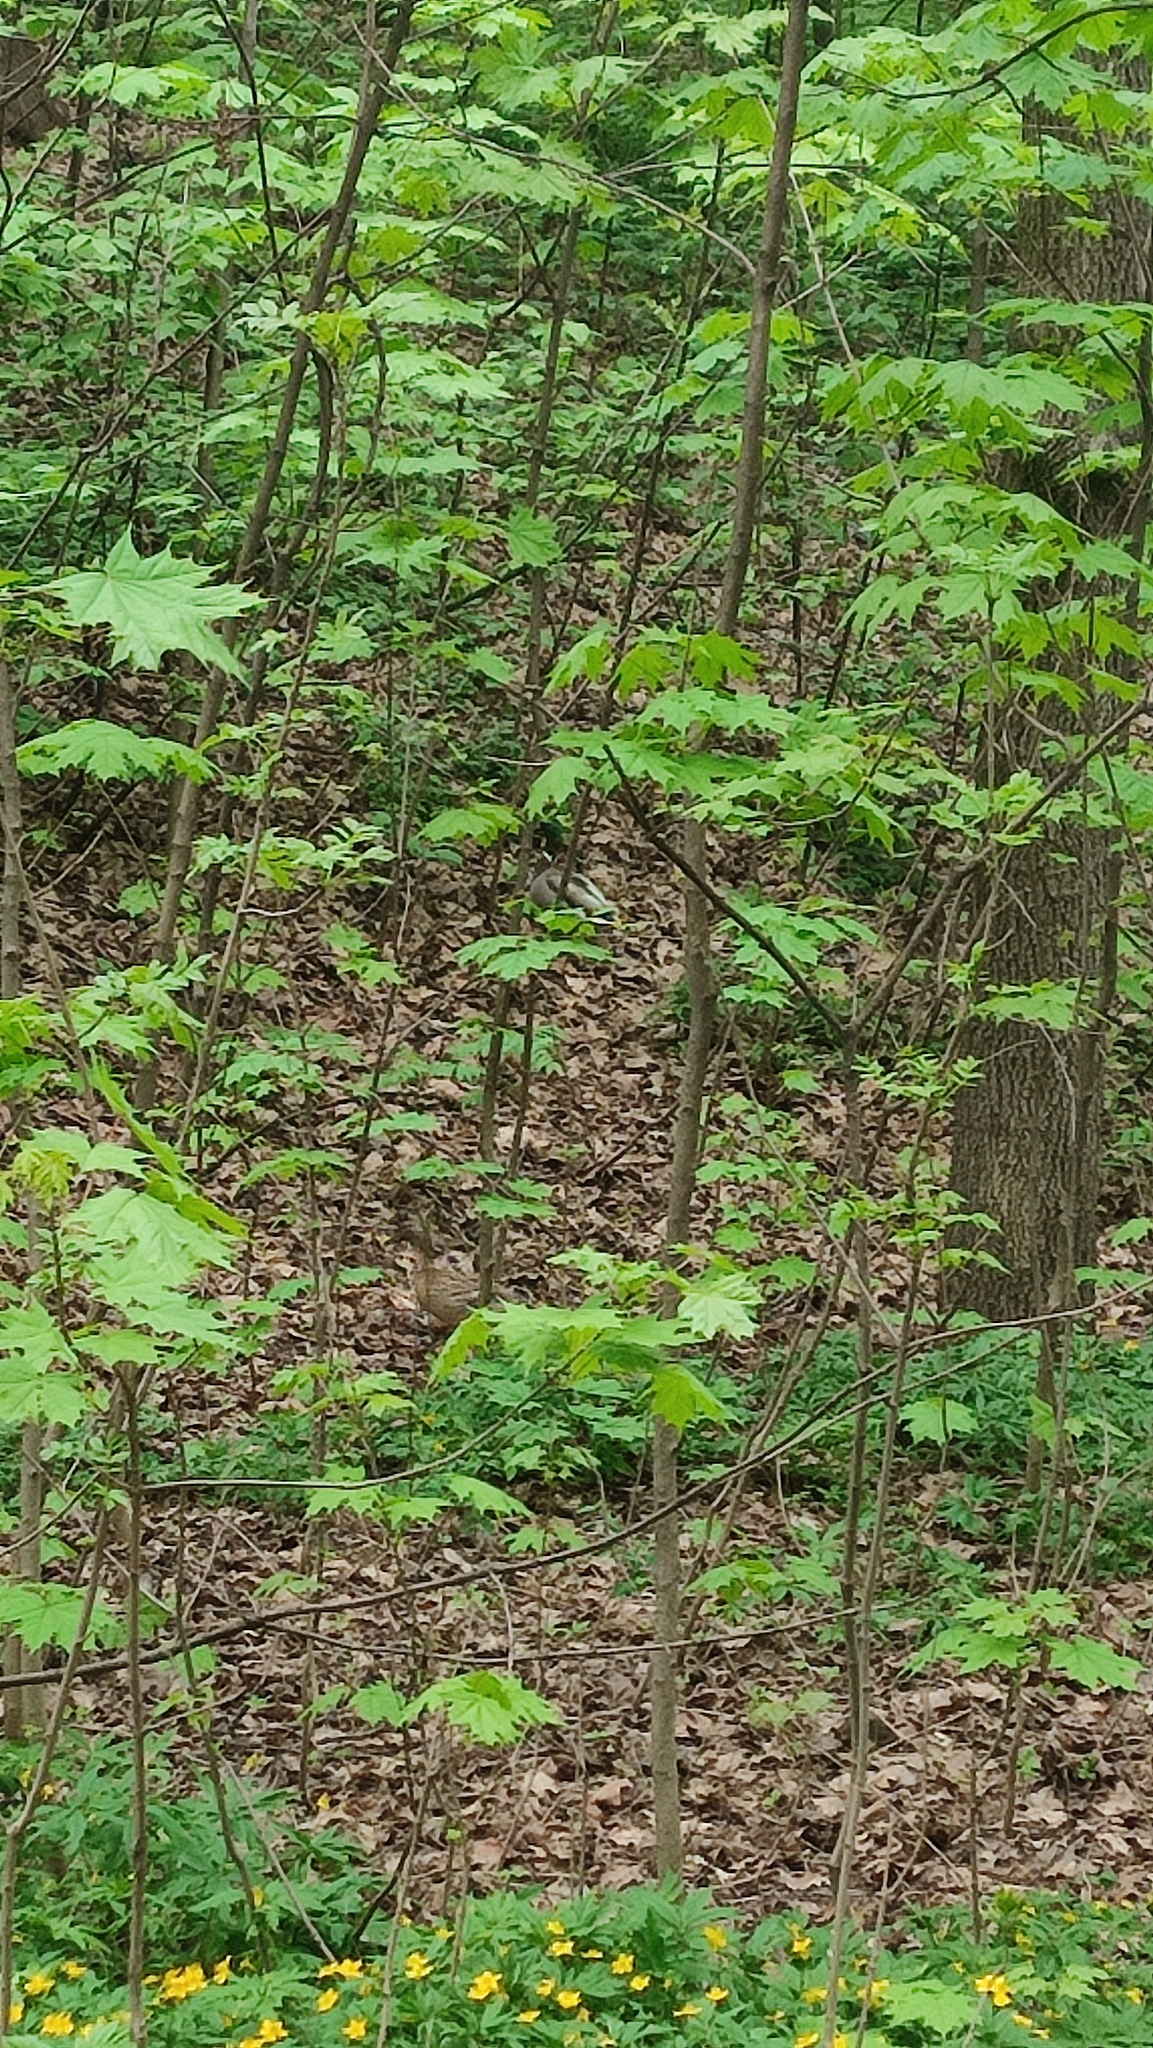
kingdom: Animalia
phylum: Chordata
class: Aves
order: Anseriformes
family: Anatidae
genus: Anas
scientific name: Anas platyrhynchos
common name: Mallard
